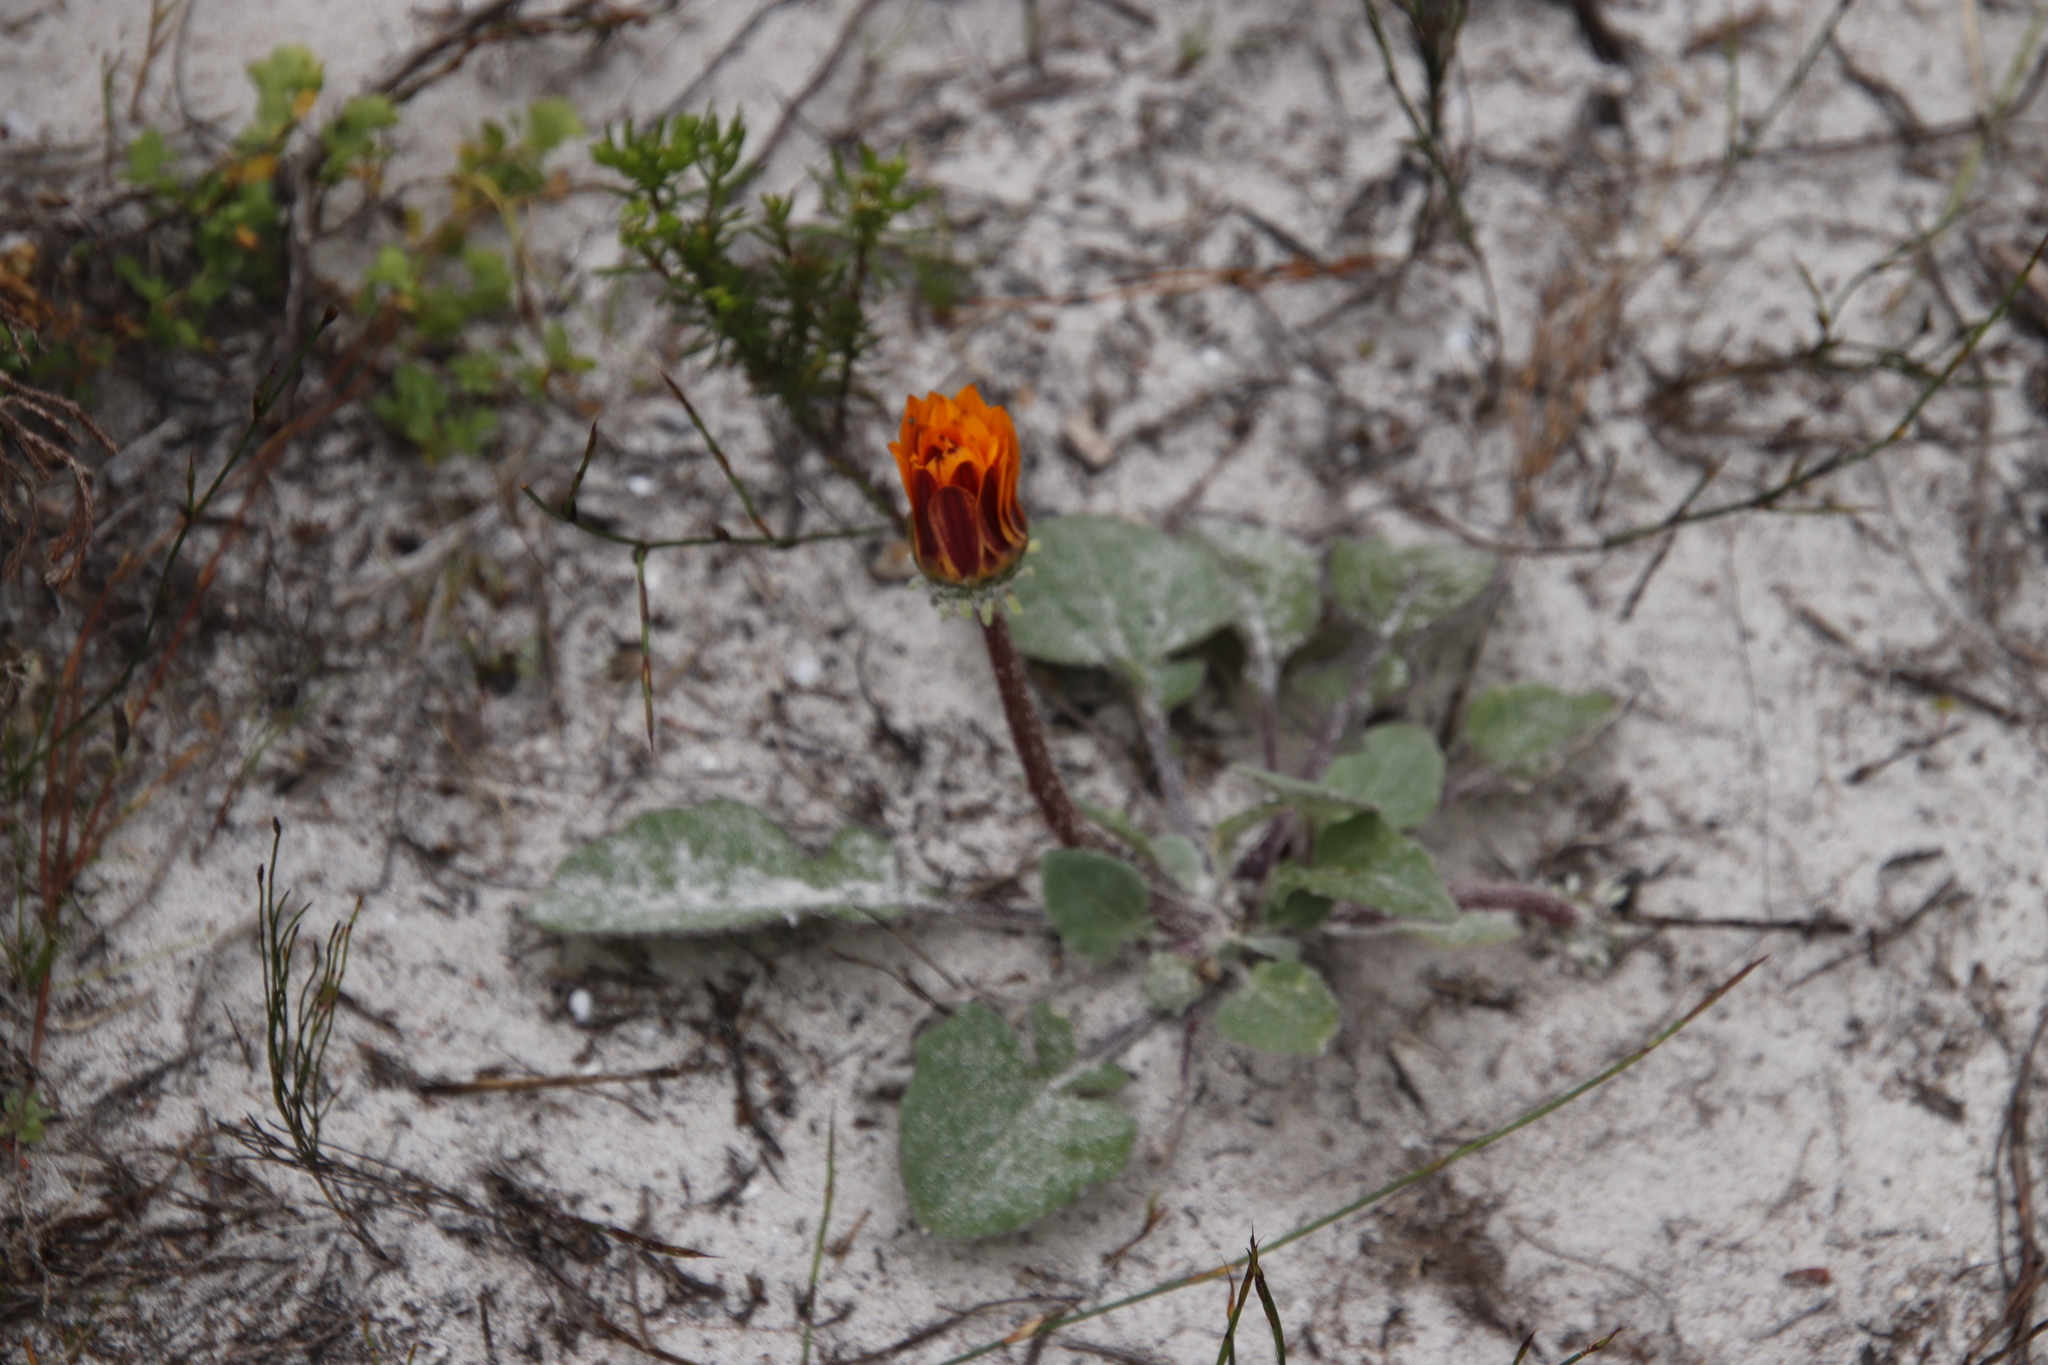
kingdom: Plantae
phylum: Tracheophyta
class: Magnoliopsida
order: Asterales
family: Asteraceae
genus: Arctotis
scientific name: Arctotis acaulis
